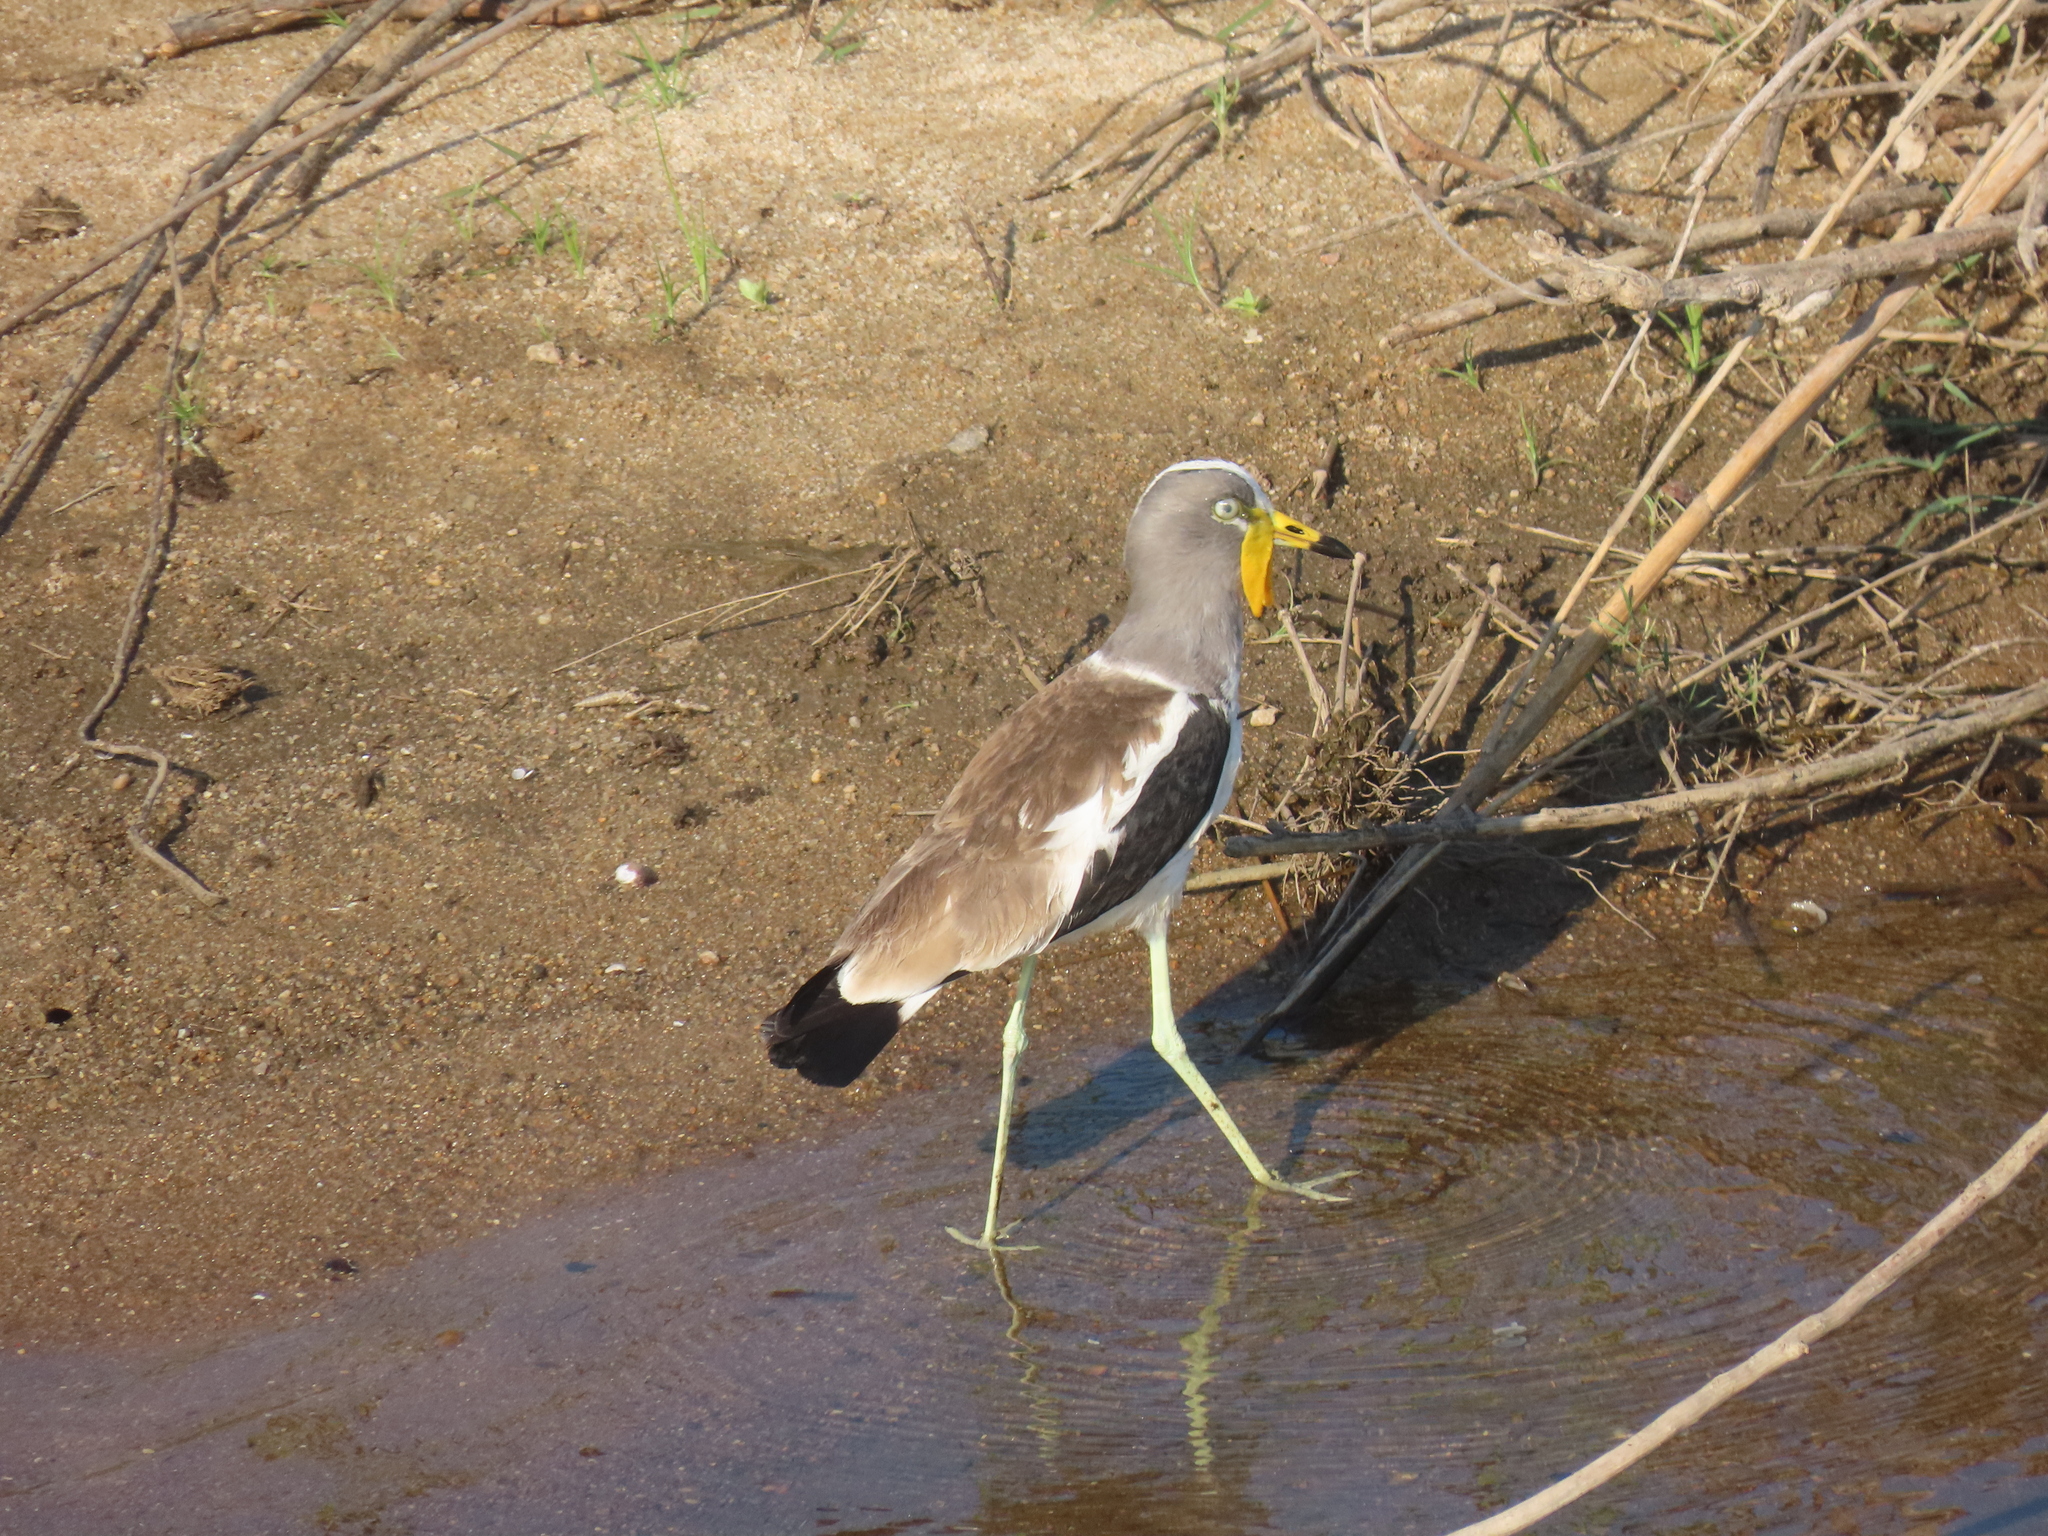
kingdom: Animalia
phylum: Chordata
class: Aves
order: Charadriiformes
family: Charadriidae
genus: Vanellus
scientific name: Vanellus albiceps
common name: White-crowned lapwing
